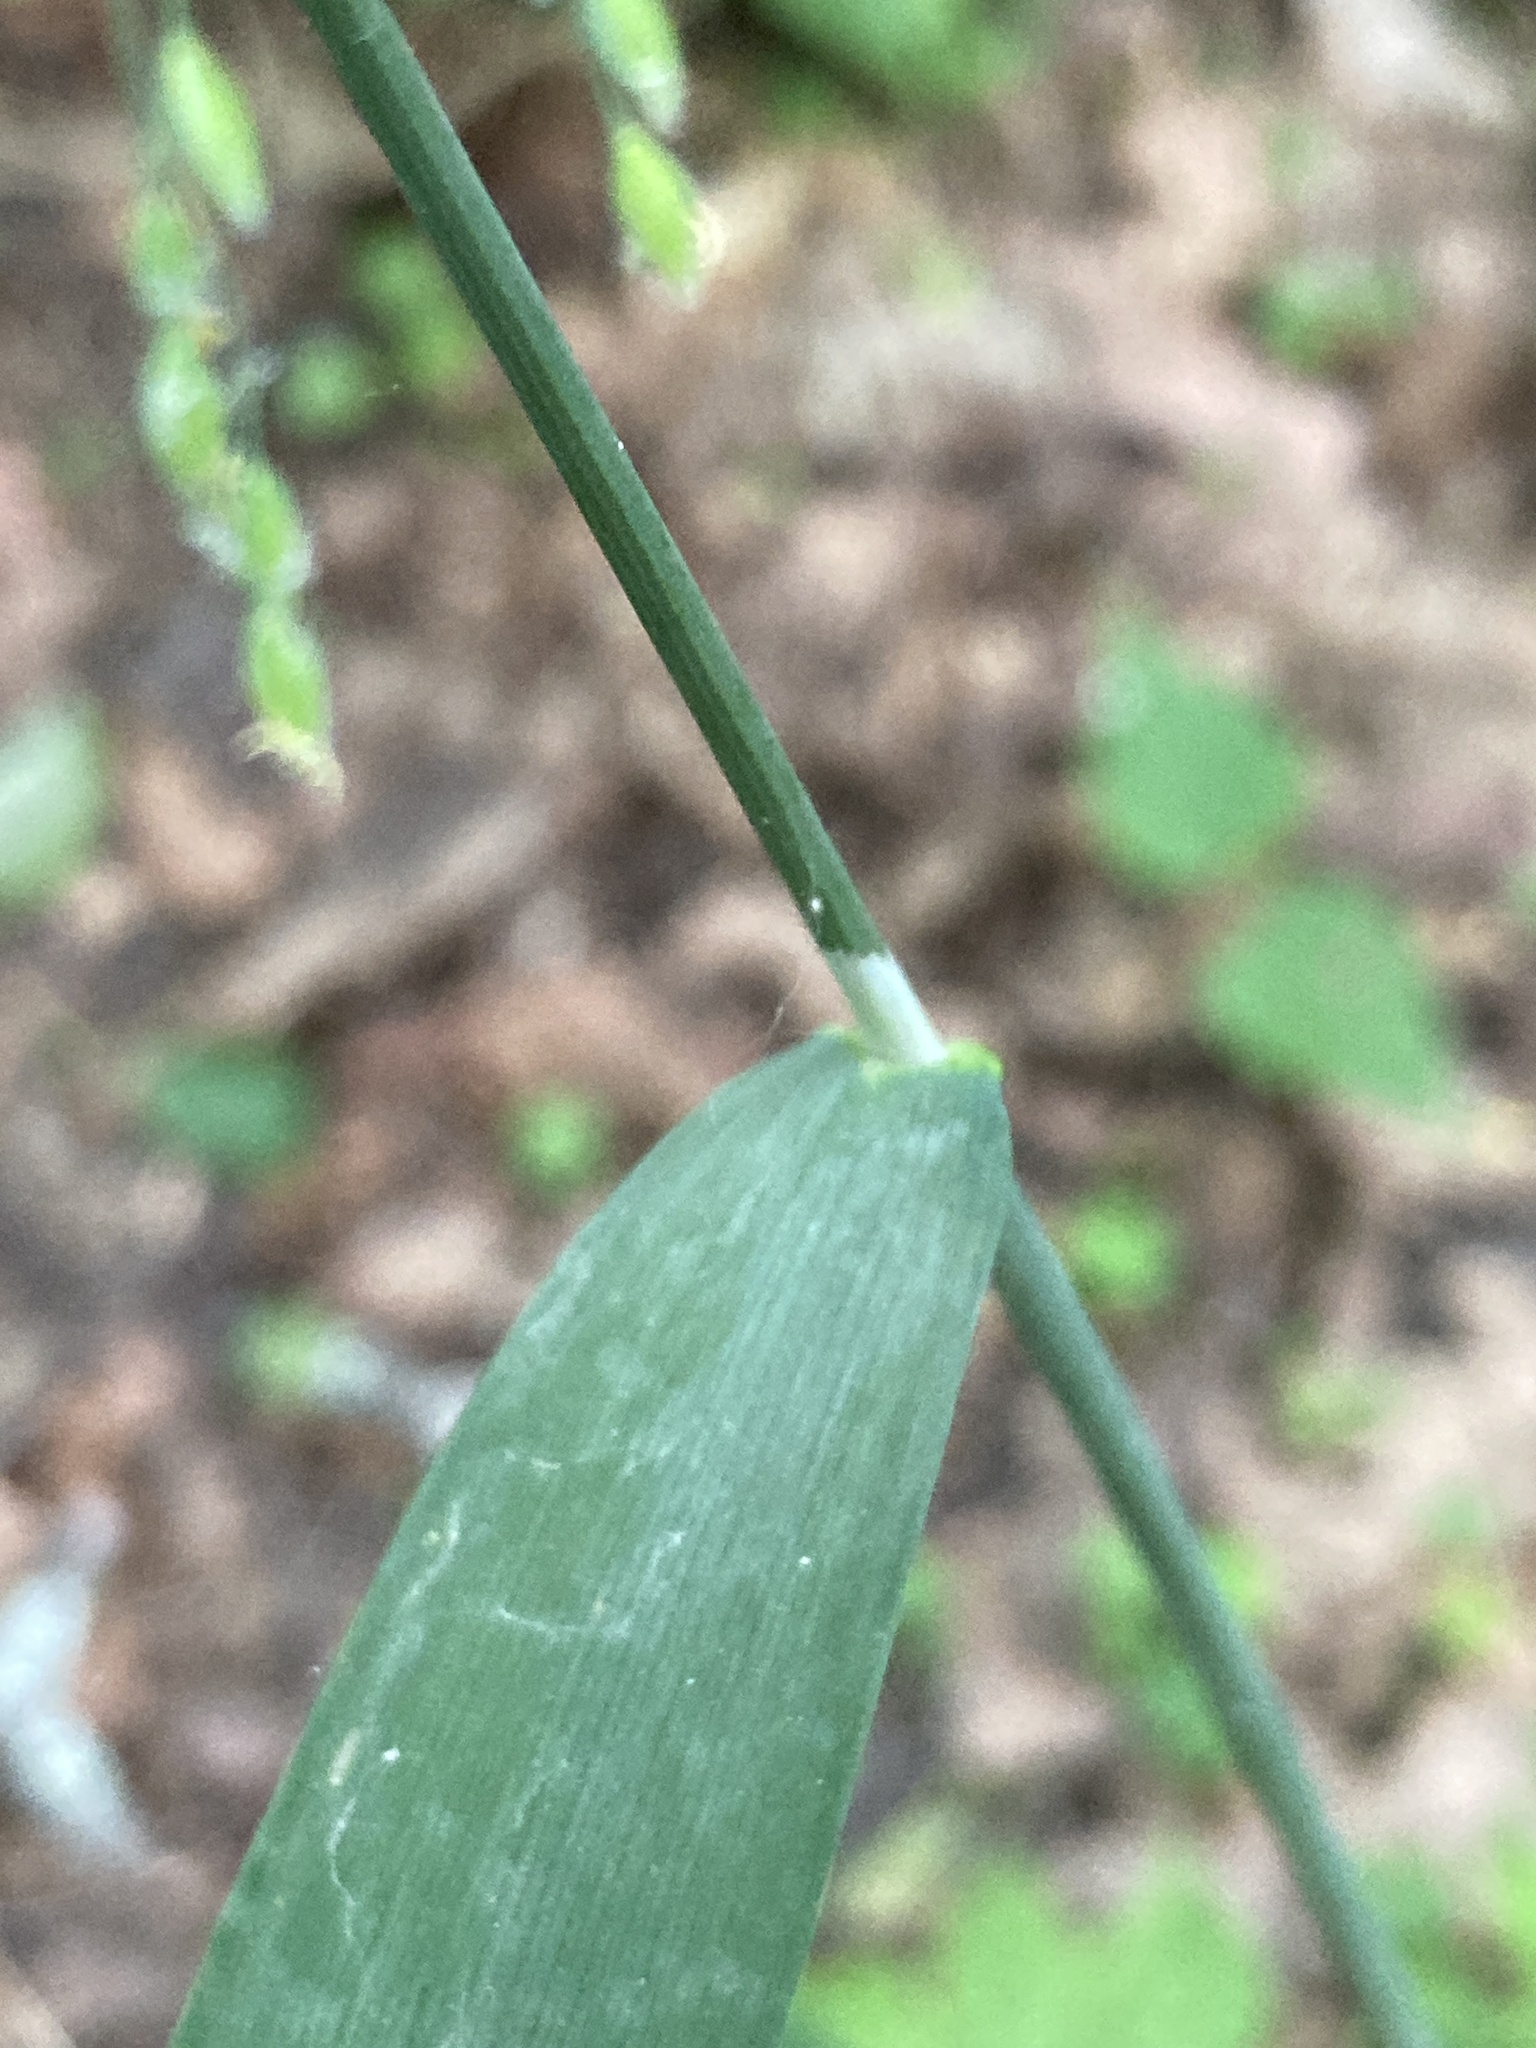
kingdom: Plantae
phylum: Tracheophyta
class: Liliopsida
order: Poales
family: Poaceae
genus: Milium
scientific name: Milium effusum
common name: Wood millet
